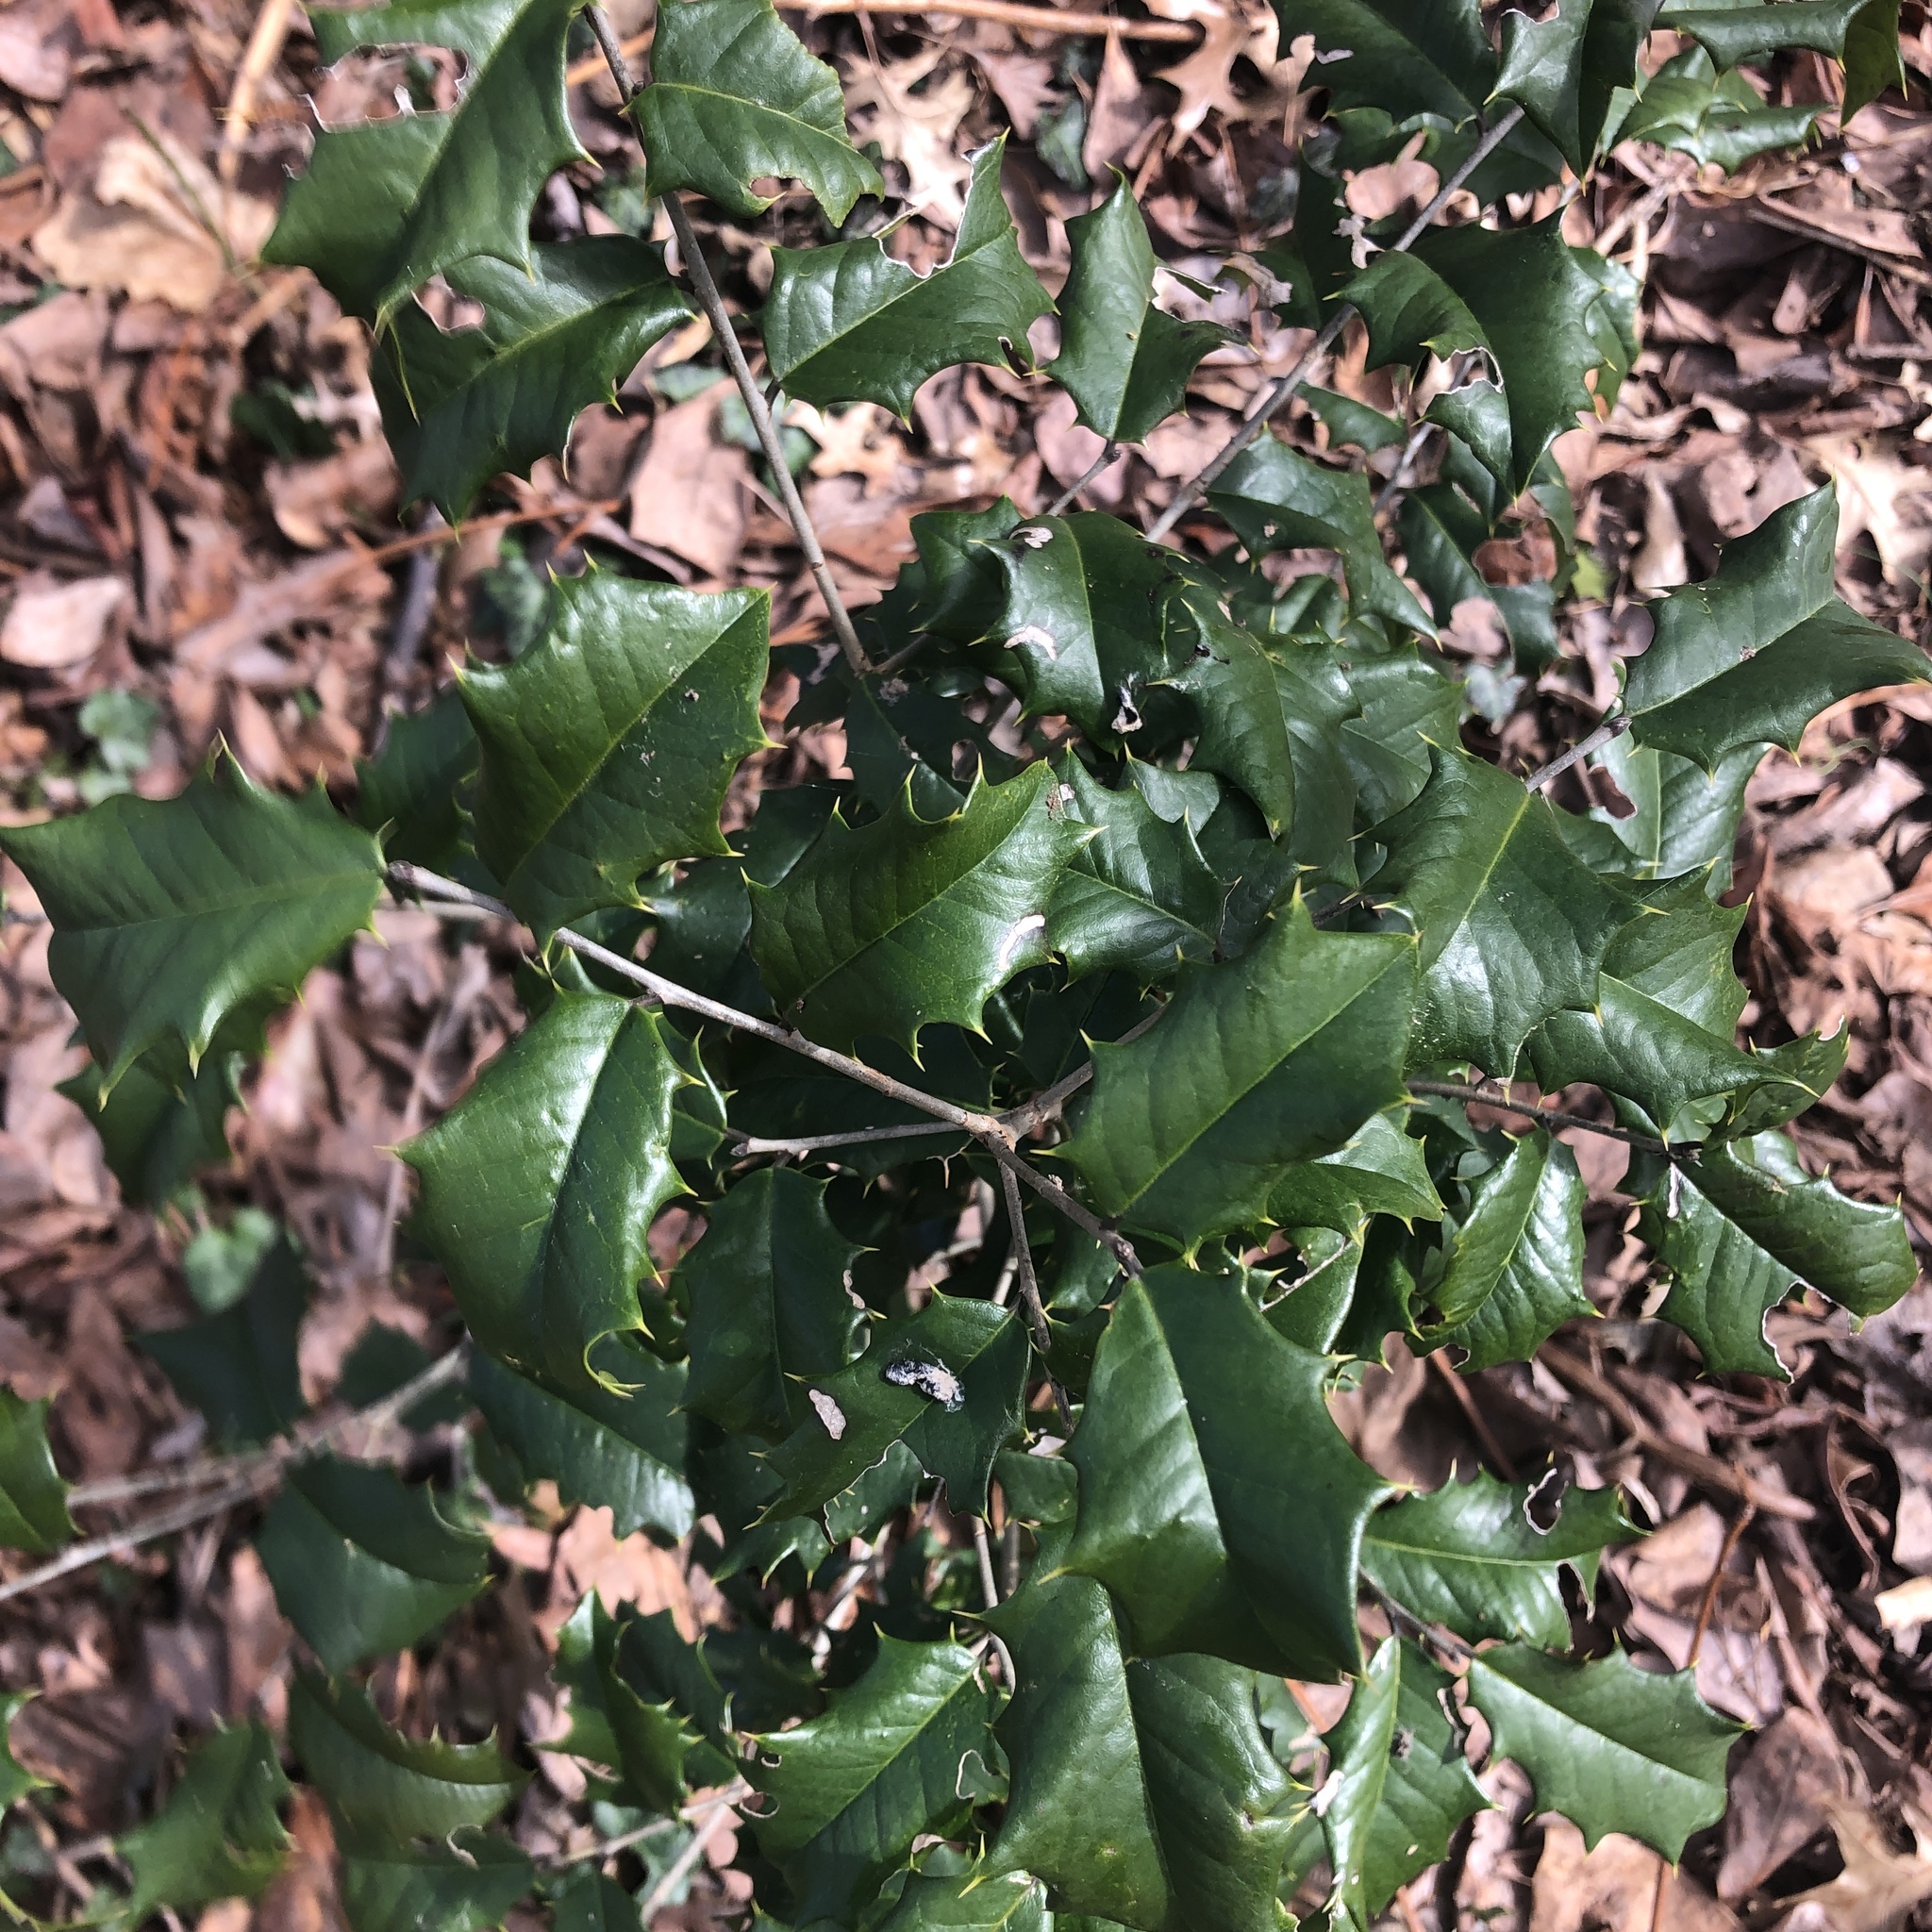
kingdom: Plantae
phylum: Tracheophyta
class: Magnoliopsida
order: Aquifoliales
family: Aquifoliaceae
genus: Ilex
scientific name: Ilex opaca
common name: American holly
